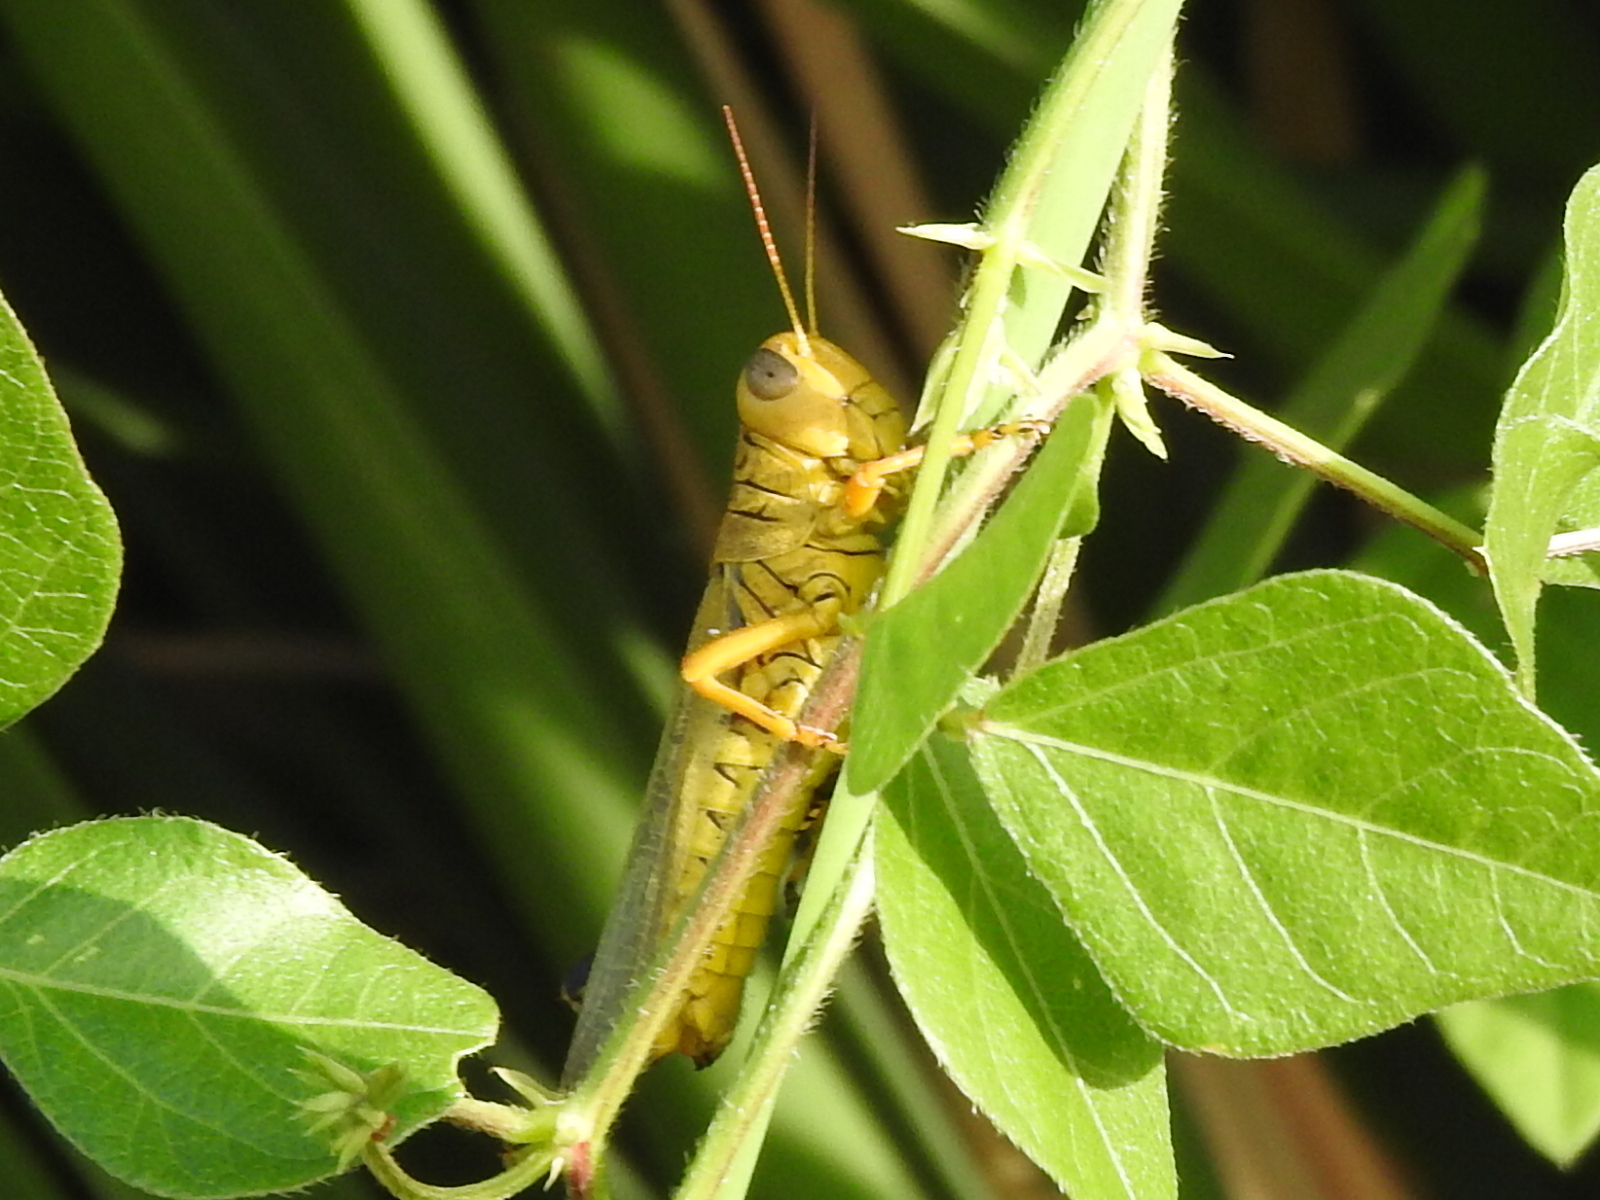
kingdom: Animalia
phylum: Arthropoda
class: Insecta
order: Orthoptera
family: Acrididae
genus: Melanoplus
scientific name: Melanoplus differentialis
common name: Differential grasshopper
